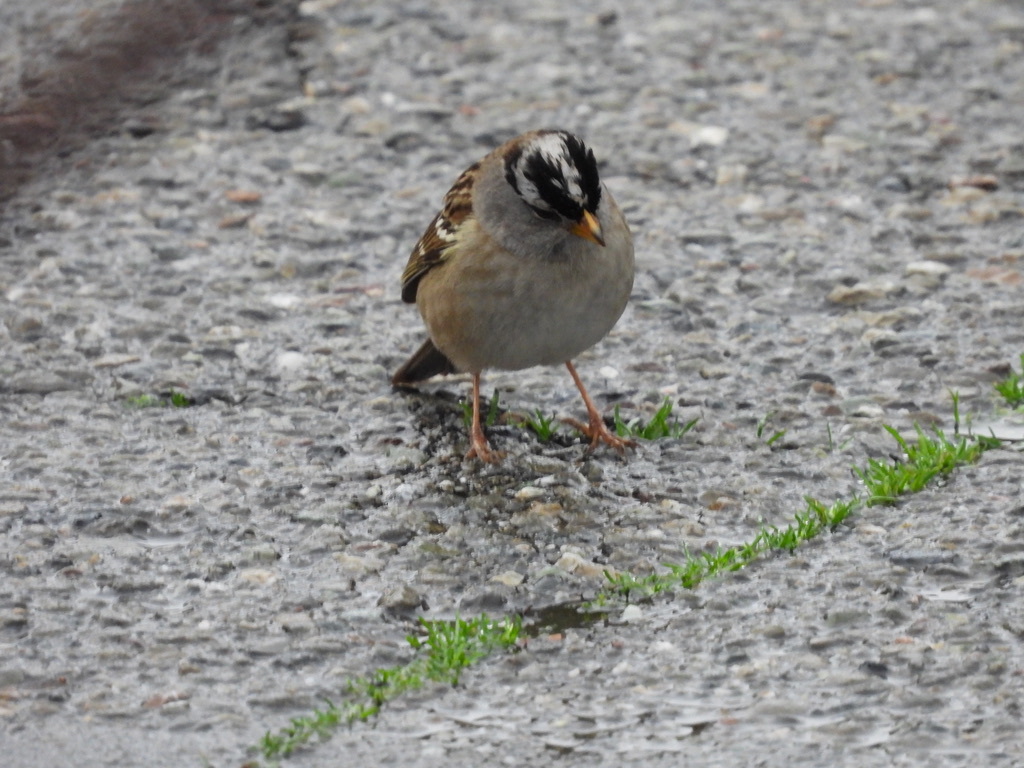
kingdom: Animalia
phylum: Chordata
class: Aves
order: Passeriformes
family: Passerellidae
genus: Zonotrichia
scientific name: Zonotrichia leucophrys
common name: White-crowned sparrow
